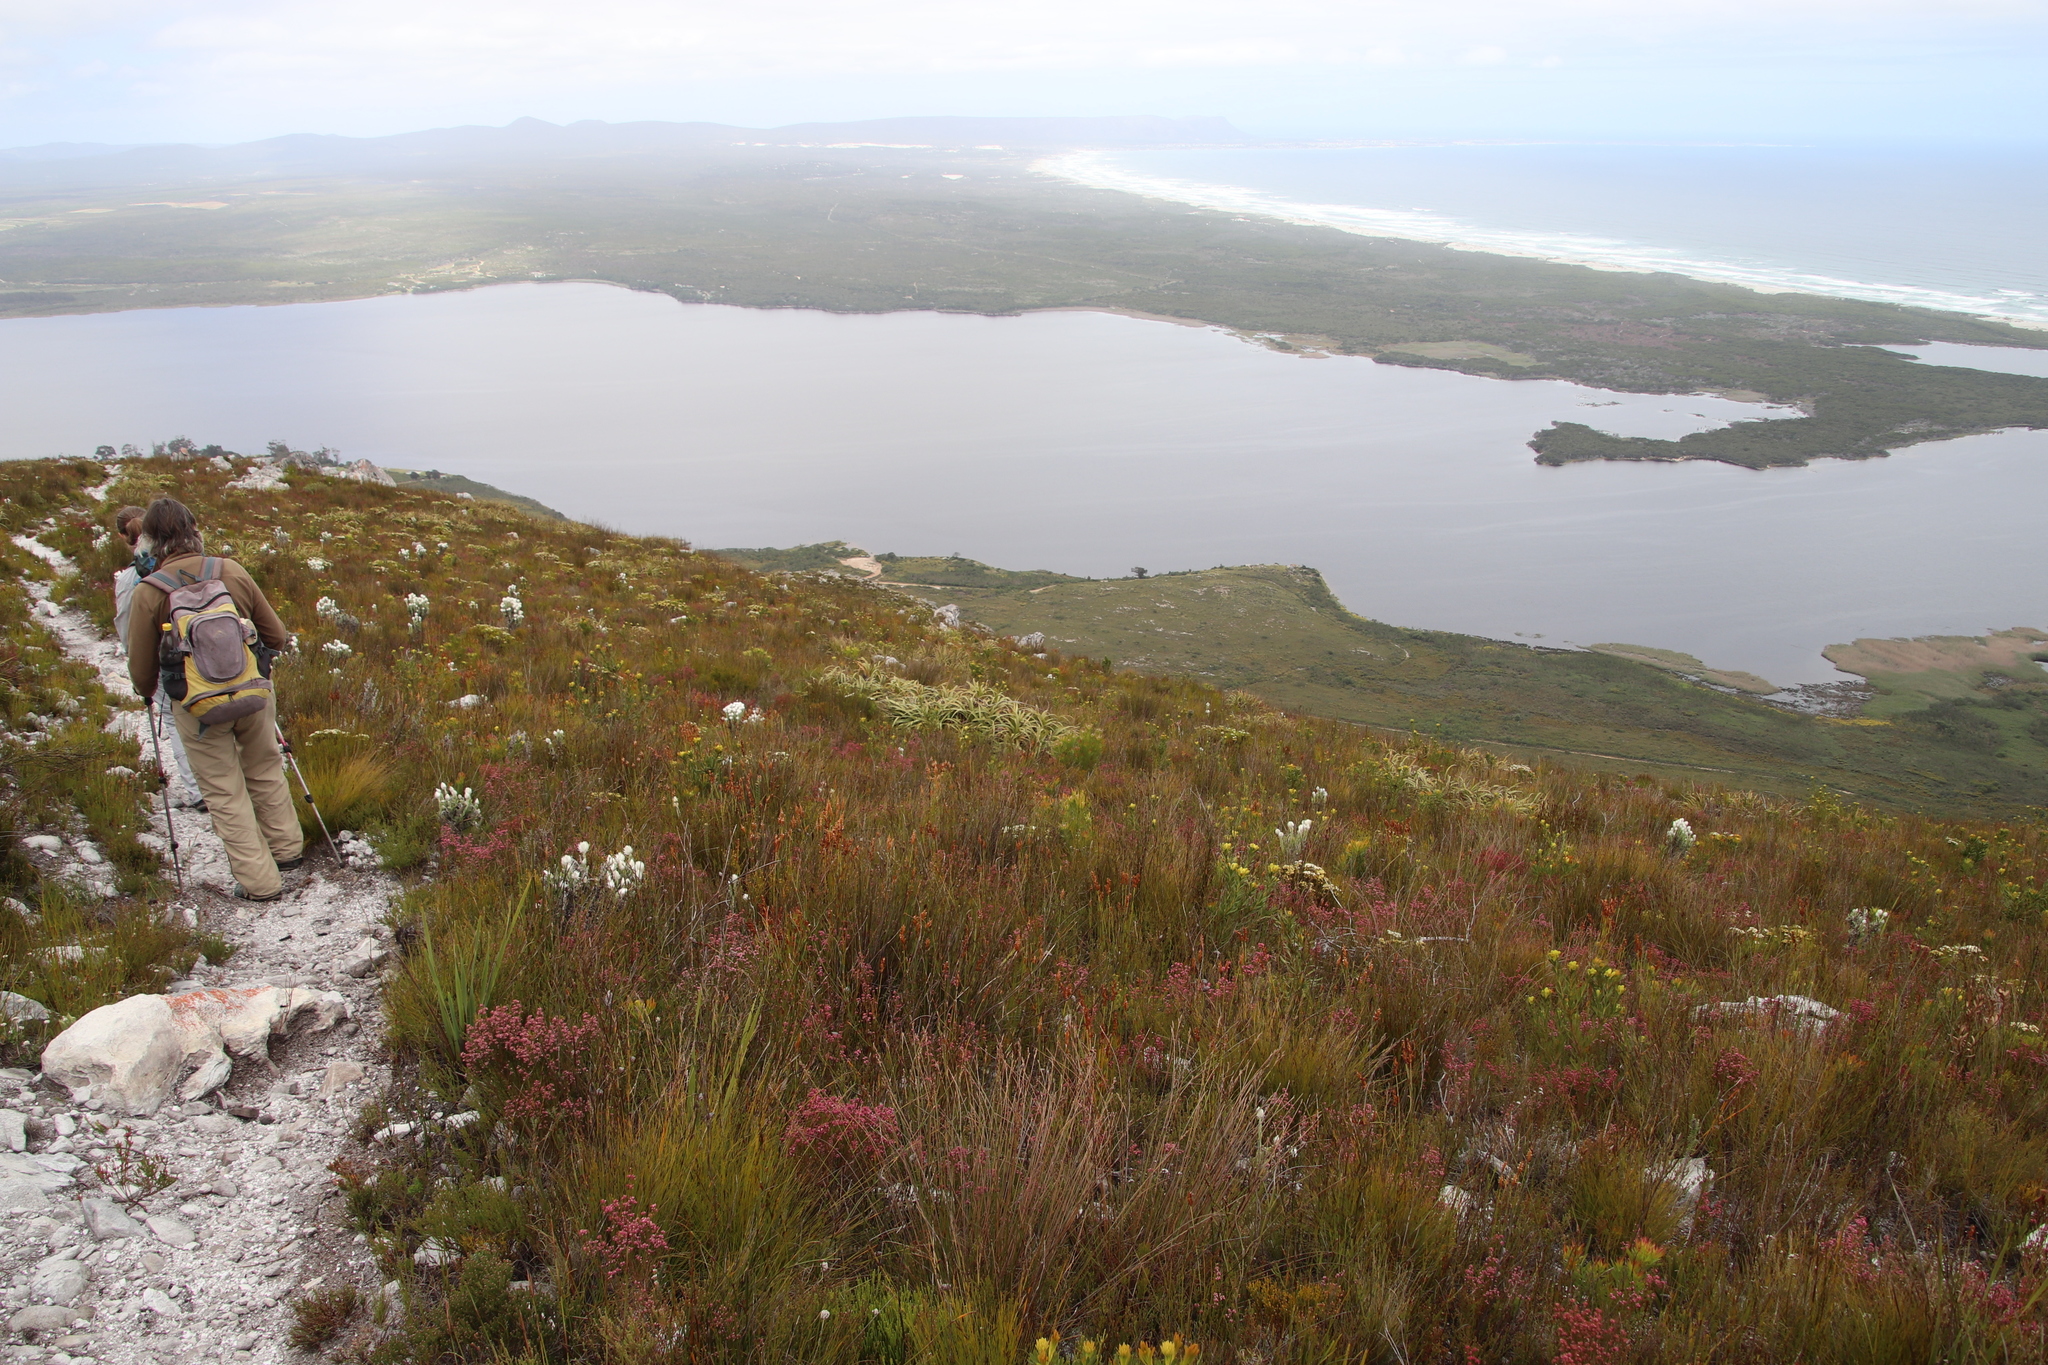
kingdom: Plantae
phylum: Tracheophyta
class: Liliopsida
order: Poales
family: Cyperaceae
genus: Tetraria
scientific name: Tetraria thermalis
